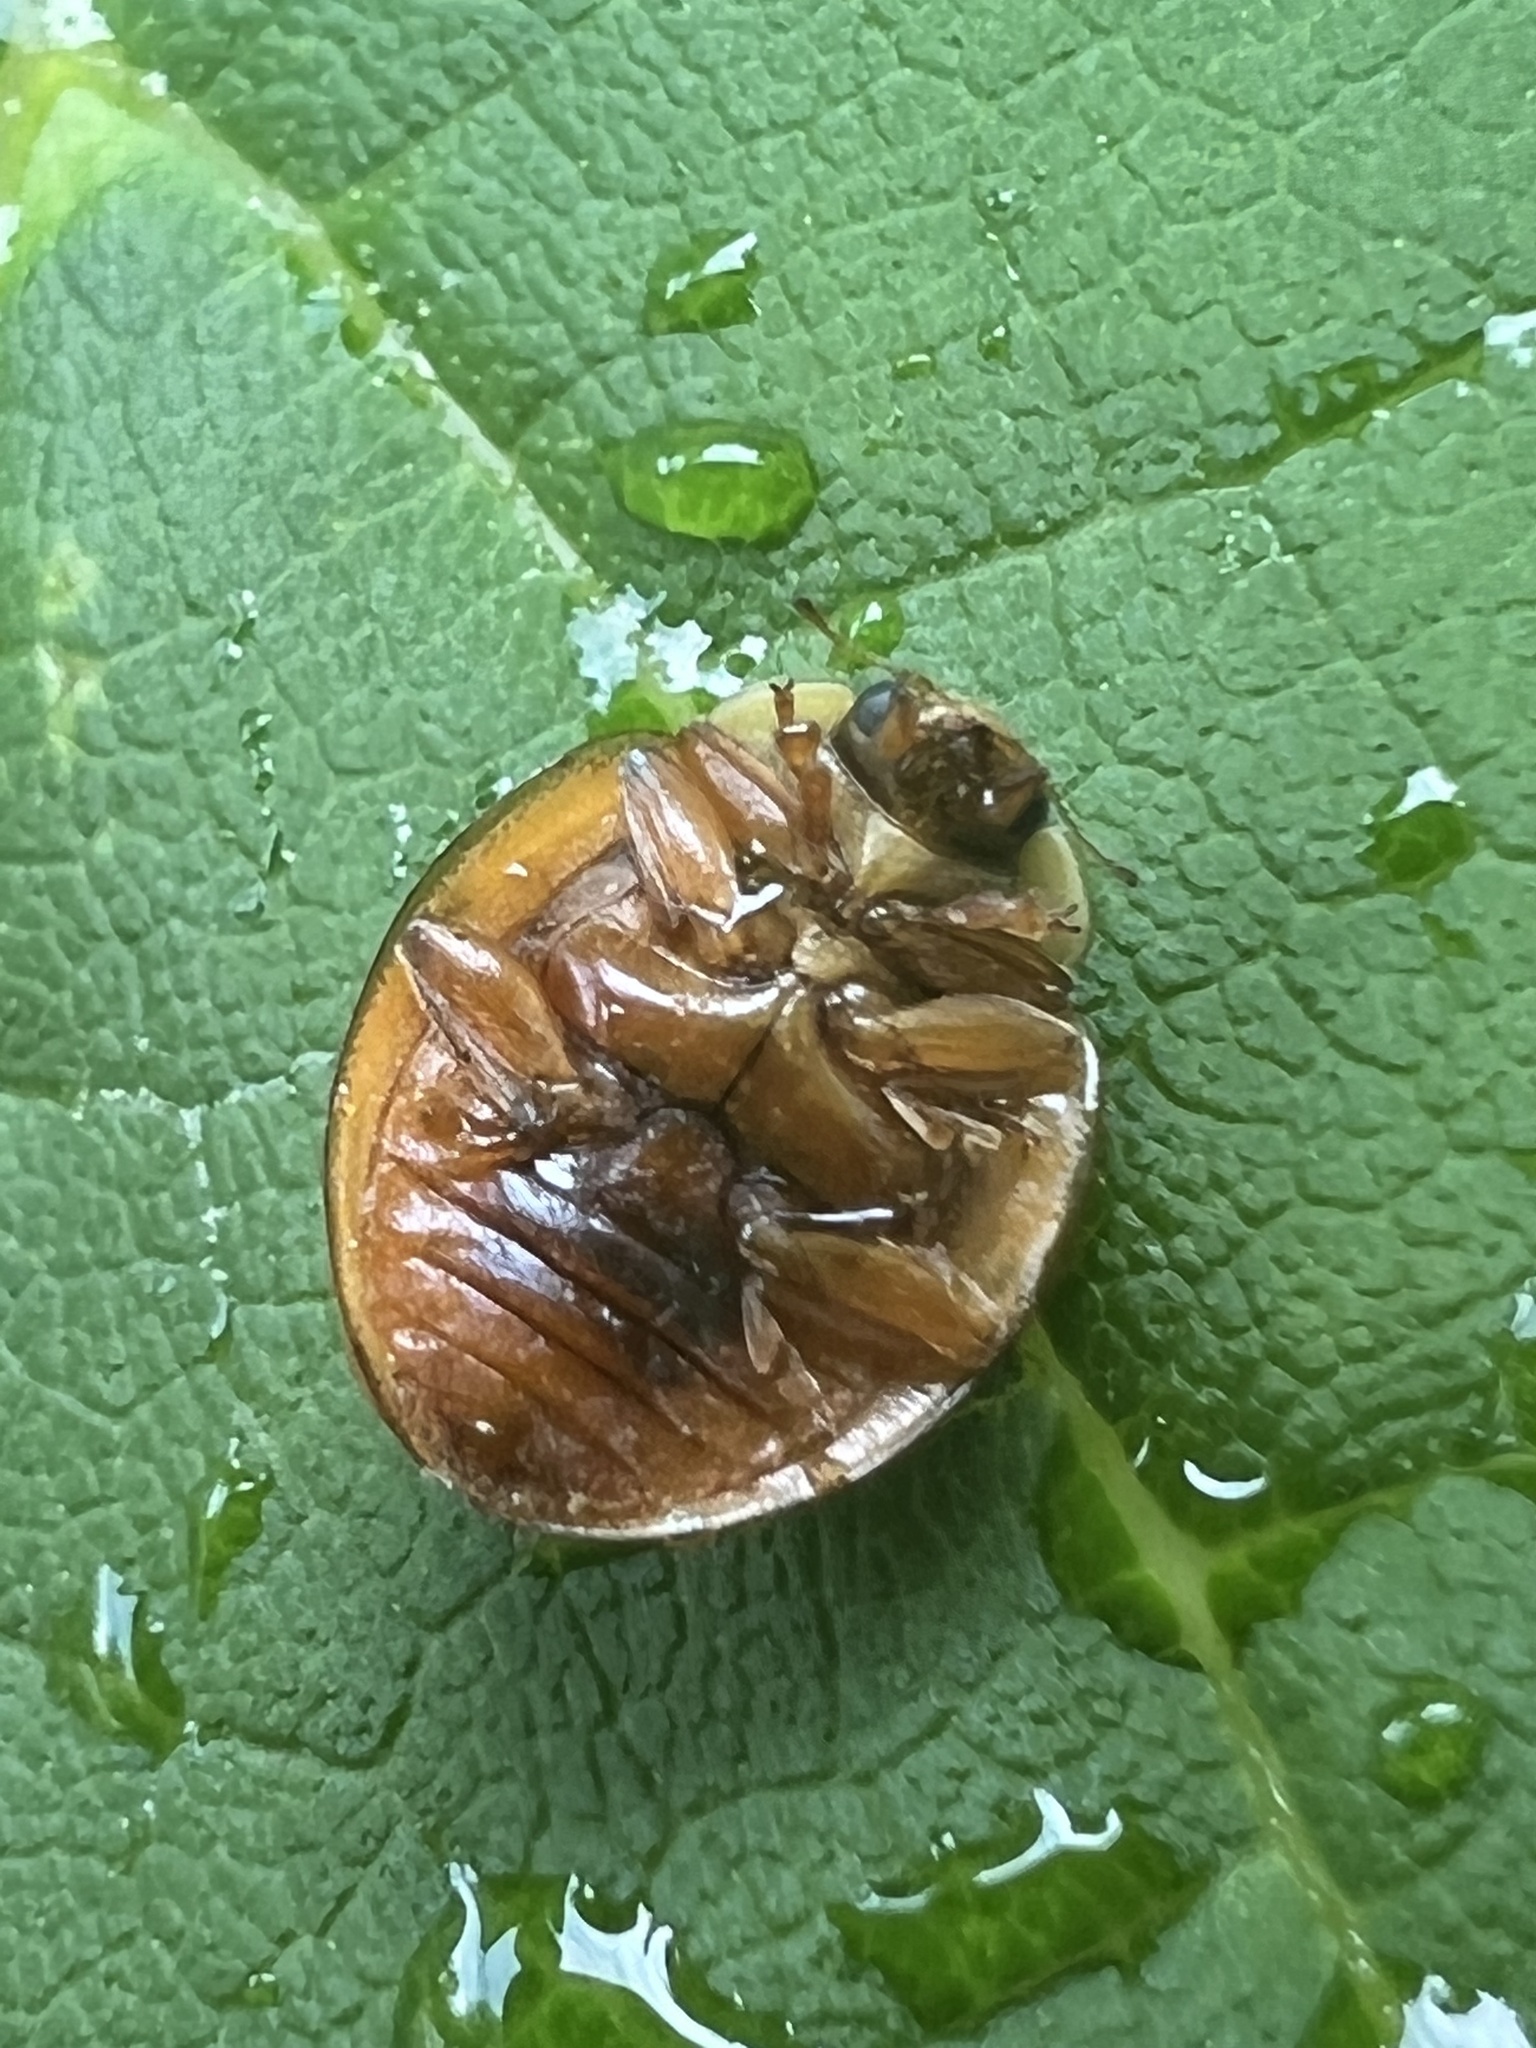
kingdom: Animalia
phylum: Arthropoda
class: Insecta
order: Coleoptera
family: Coccinellidae
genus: Harmonia
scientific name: Harmonia axyridis
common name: Harlequin ladybird
